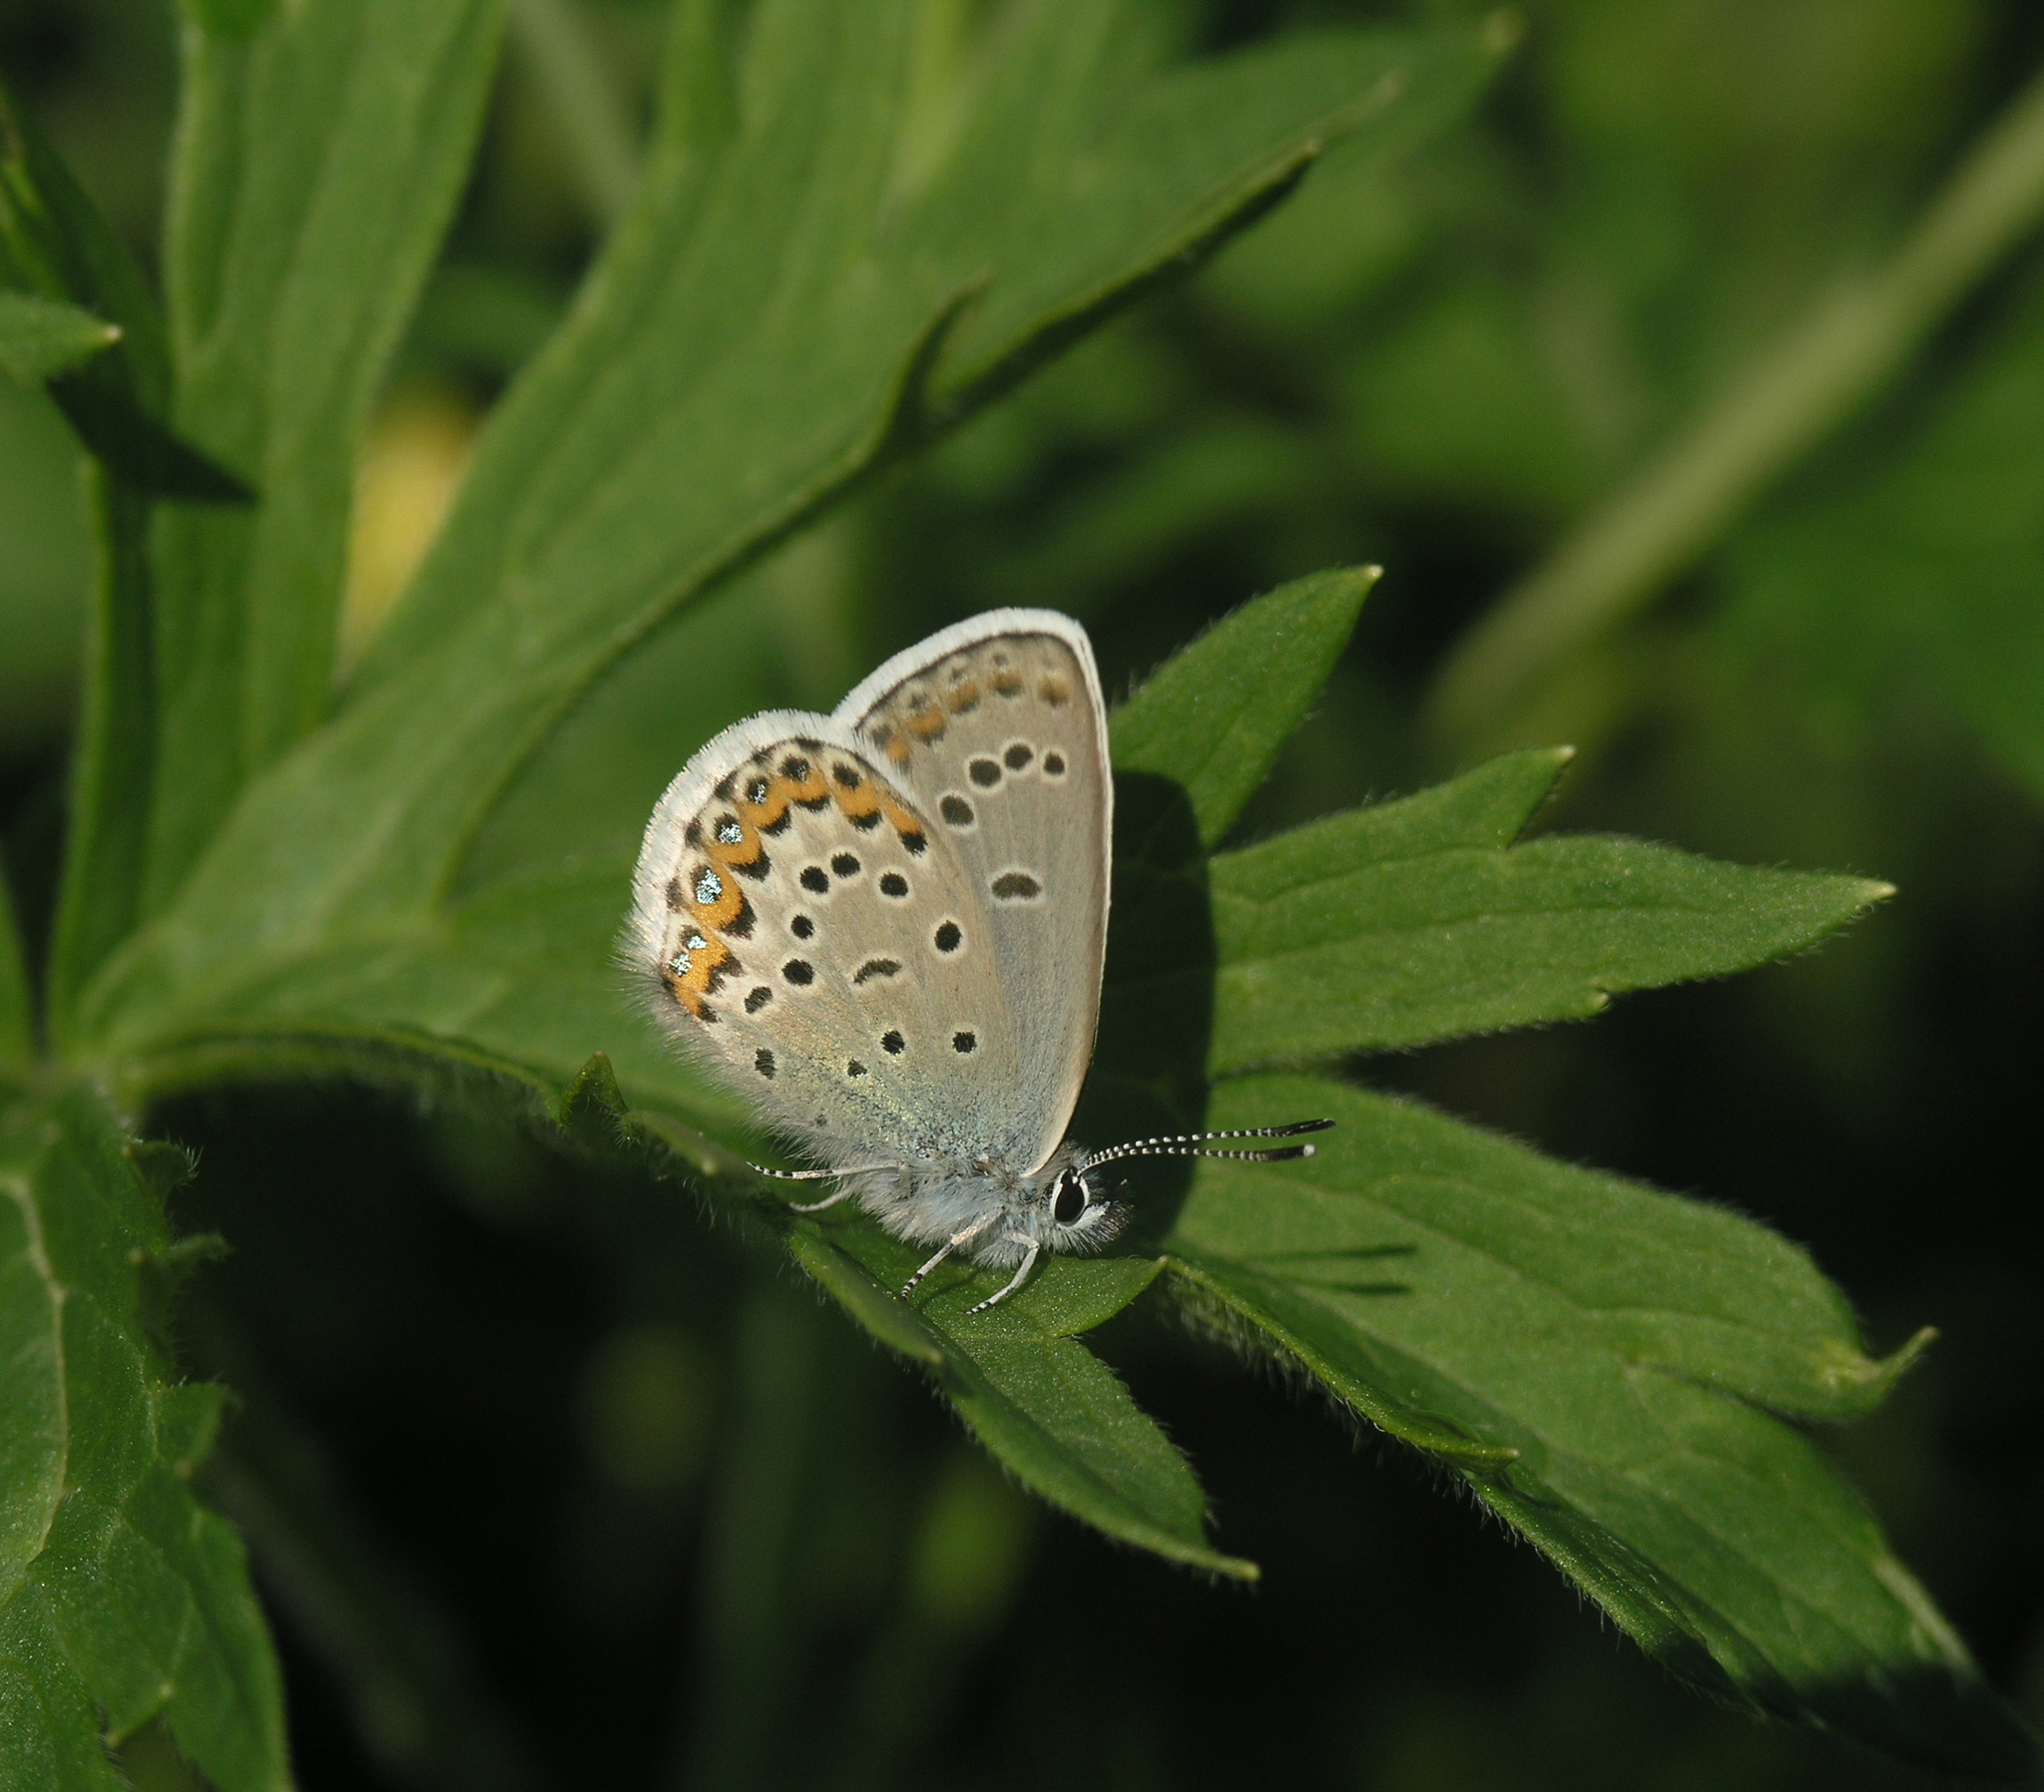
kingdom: Animalia
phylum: Arthropoda
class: Insecta
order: Lepidoptera
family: Lycaenidae
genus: Lycaeides
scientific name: Lycaeides idas
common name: Northern blue
